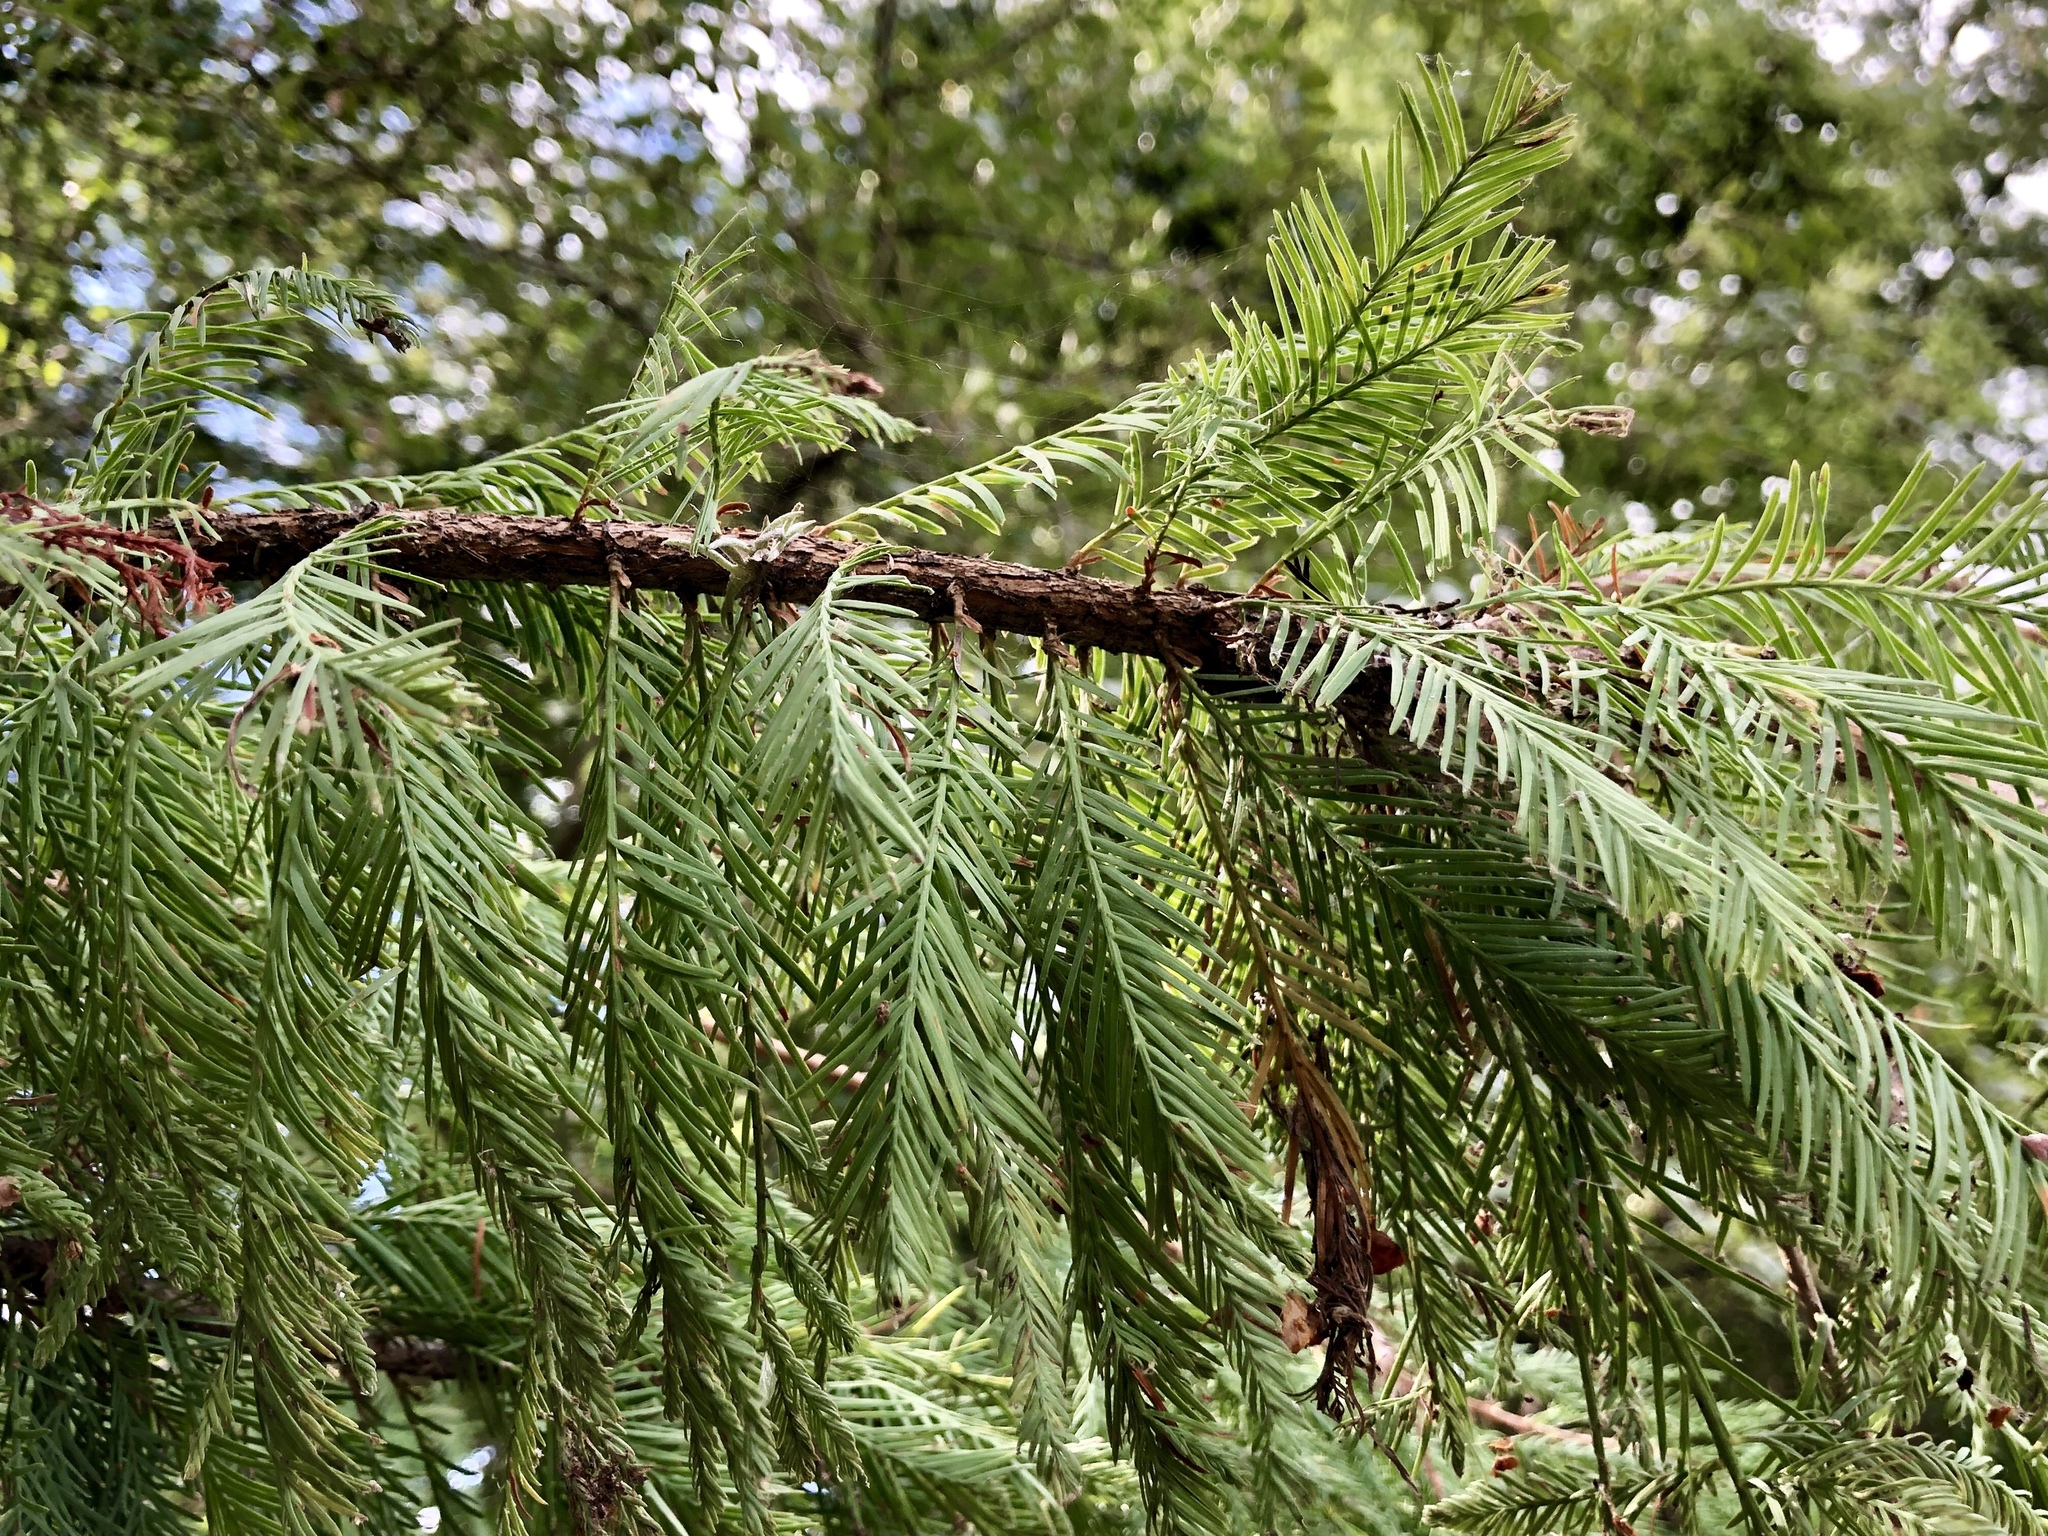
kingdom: Plantae
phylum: Tracheophyta
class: Pinopsida
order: Pinales
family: Cupressaceae
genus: Taxodium
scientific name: Taxodium distichum
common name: Bald cypress
